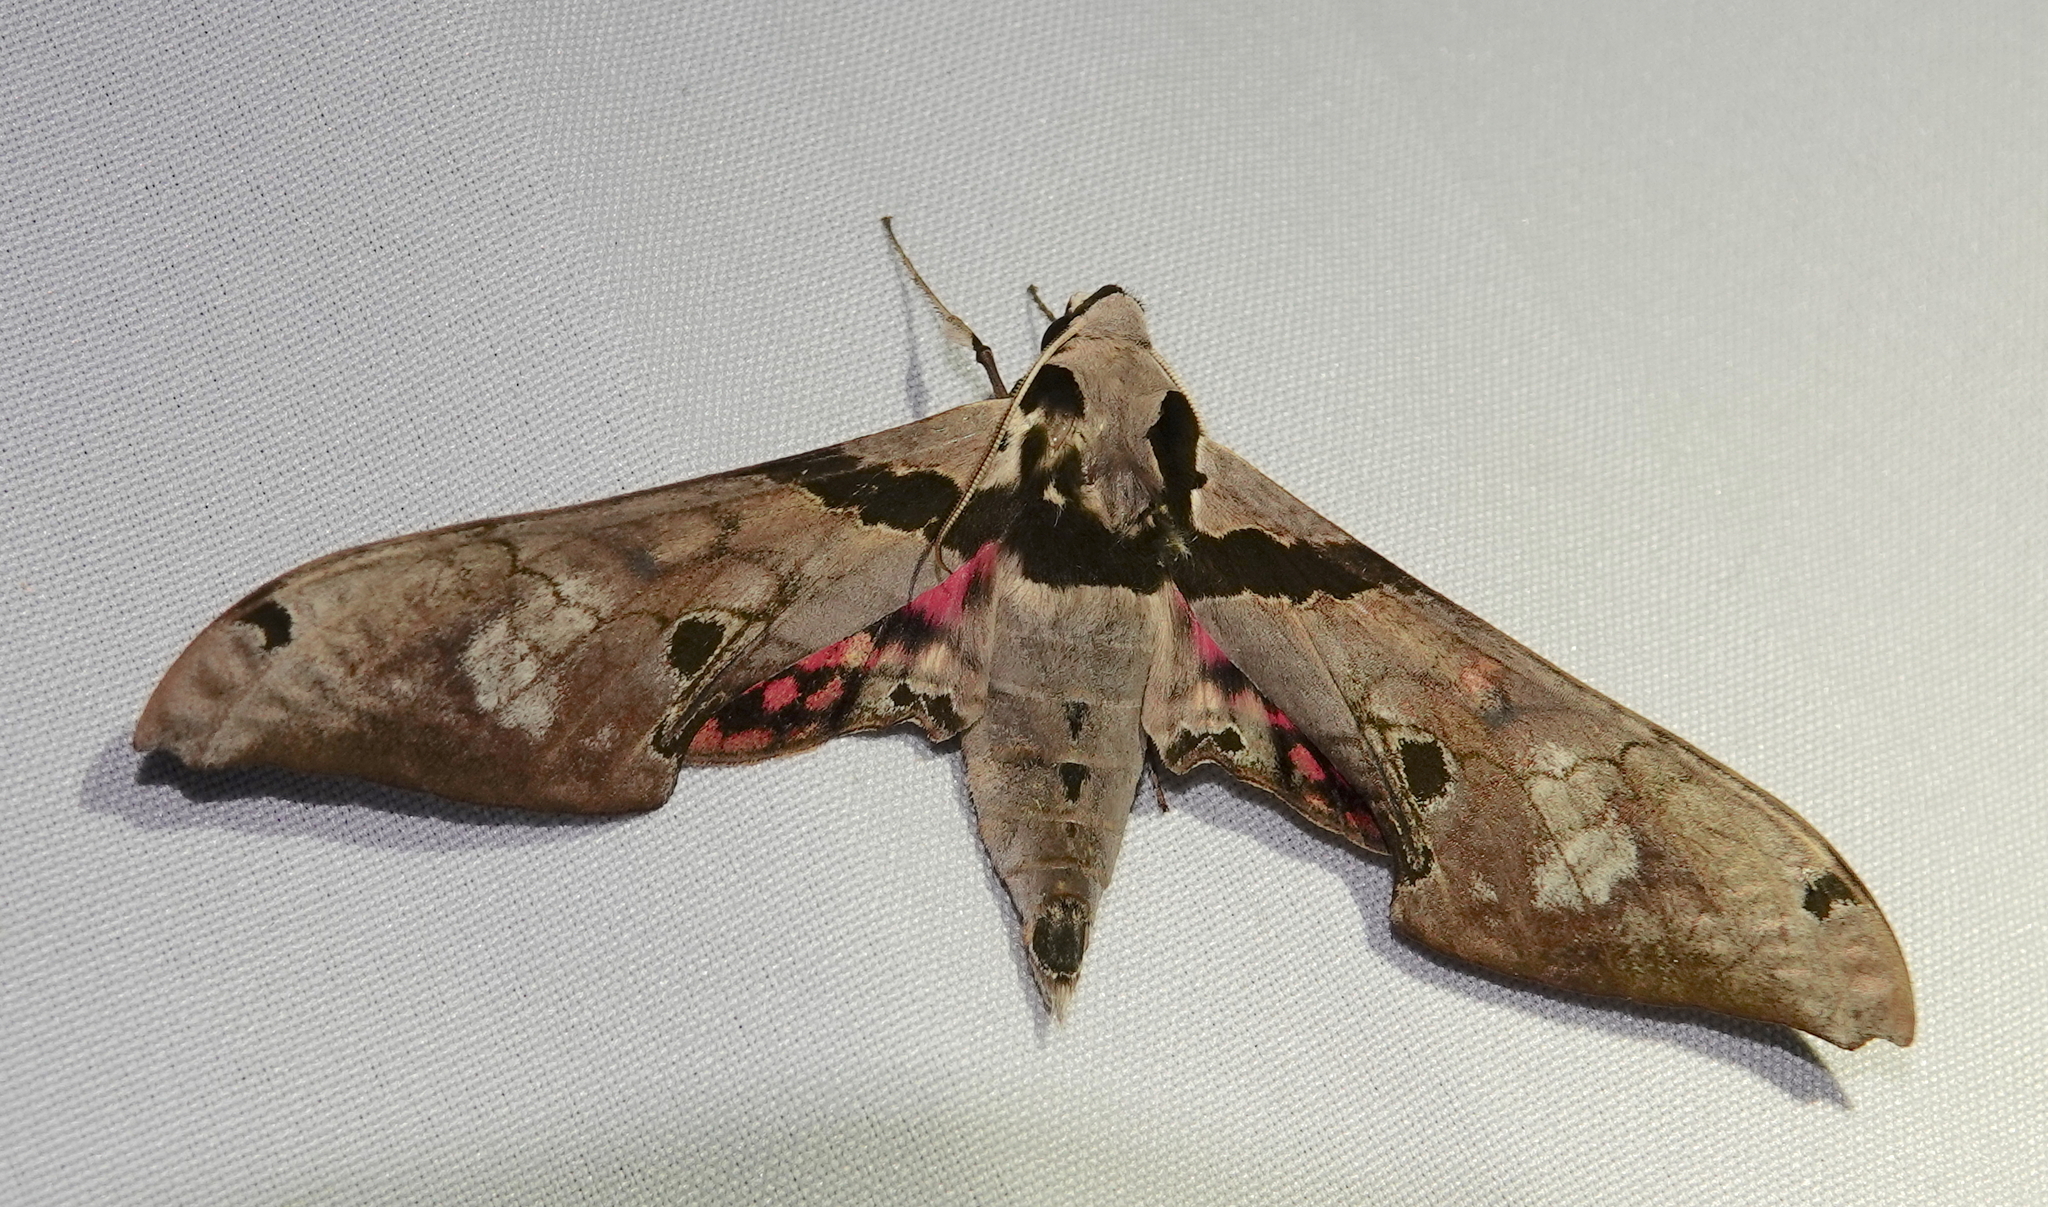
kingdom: Animalia
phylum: Arthropoda
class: Insecta
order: Lepidoptera
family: Sphingidae
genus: Adhemarius
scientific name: Adhemarius gannascus
